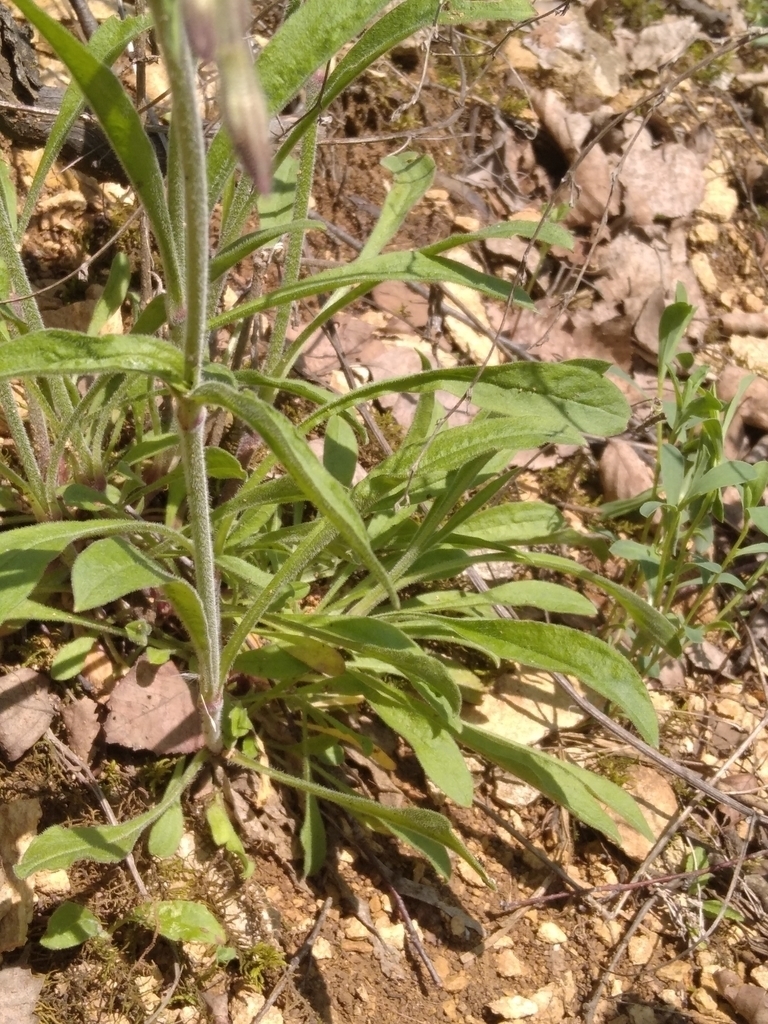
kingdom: Plantae
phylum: Tracheophyta
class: Magnoliopsida
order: Caryophyllales
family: Caryophyllaceae
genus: Silene
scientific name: Silene nutans
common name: Nottingham catchfly
